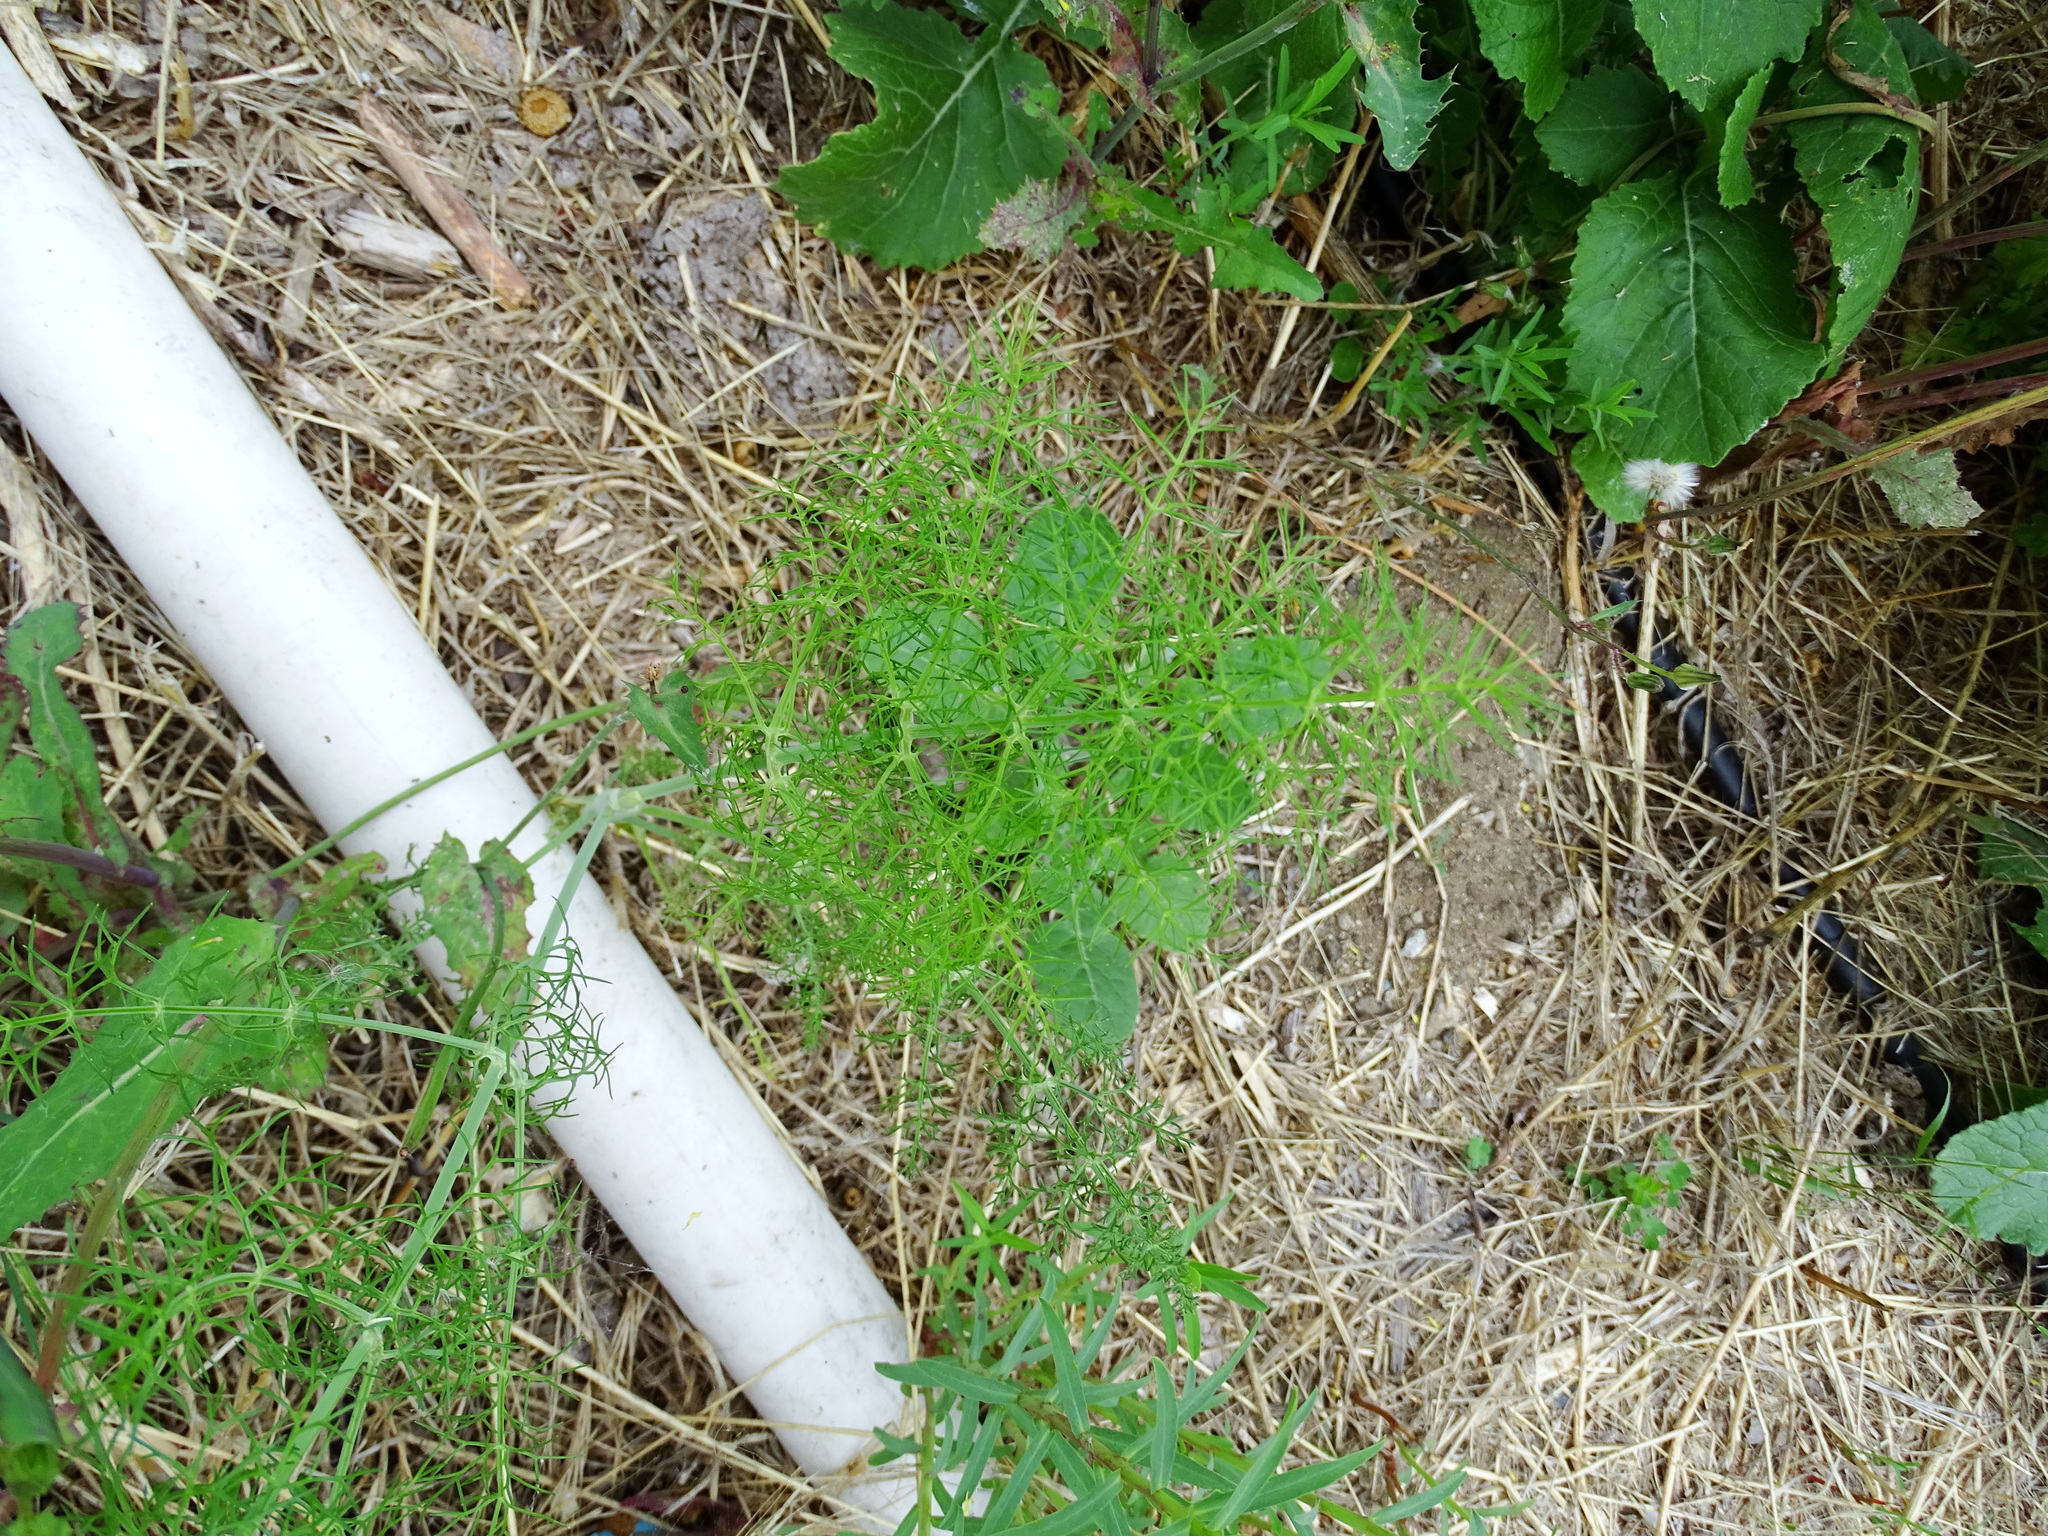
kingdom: Plantae
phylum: Tracheophyta
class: Magnoliopsida
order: Apiales
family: Apiaceae
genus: Foeniculum
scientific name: Foeniculum vulgare
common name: Fennel
